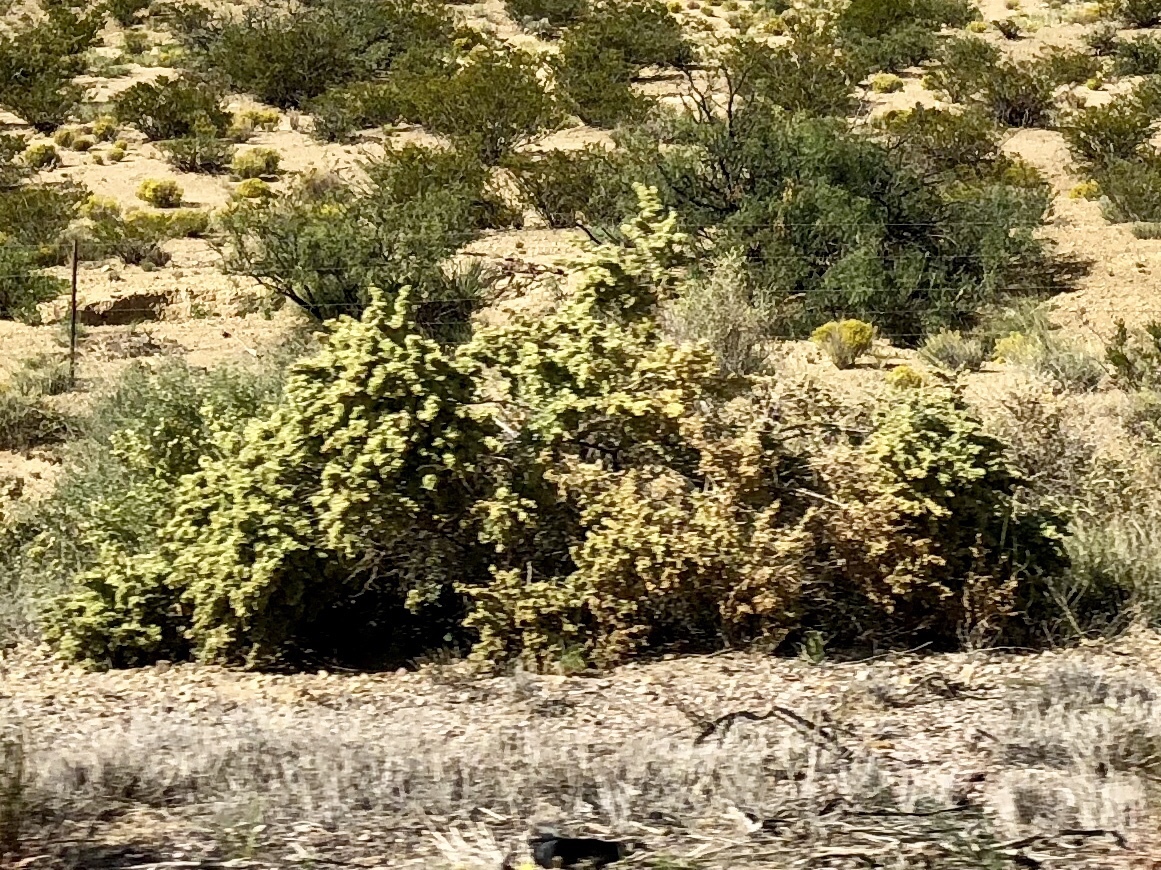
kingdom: Plantae
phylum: Tracheophyta
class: Magnoliopsida
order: Caryophyllales
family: Amaranthaceae
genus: Atriplex
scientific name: Atriplex canescens
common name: Four-wing saltbush
